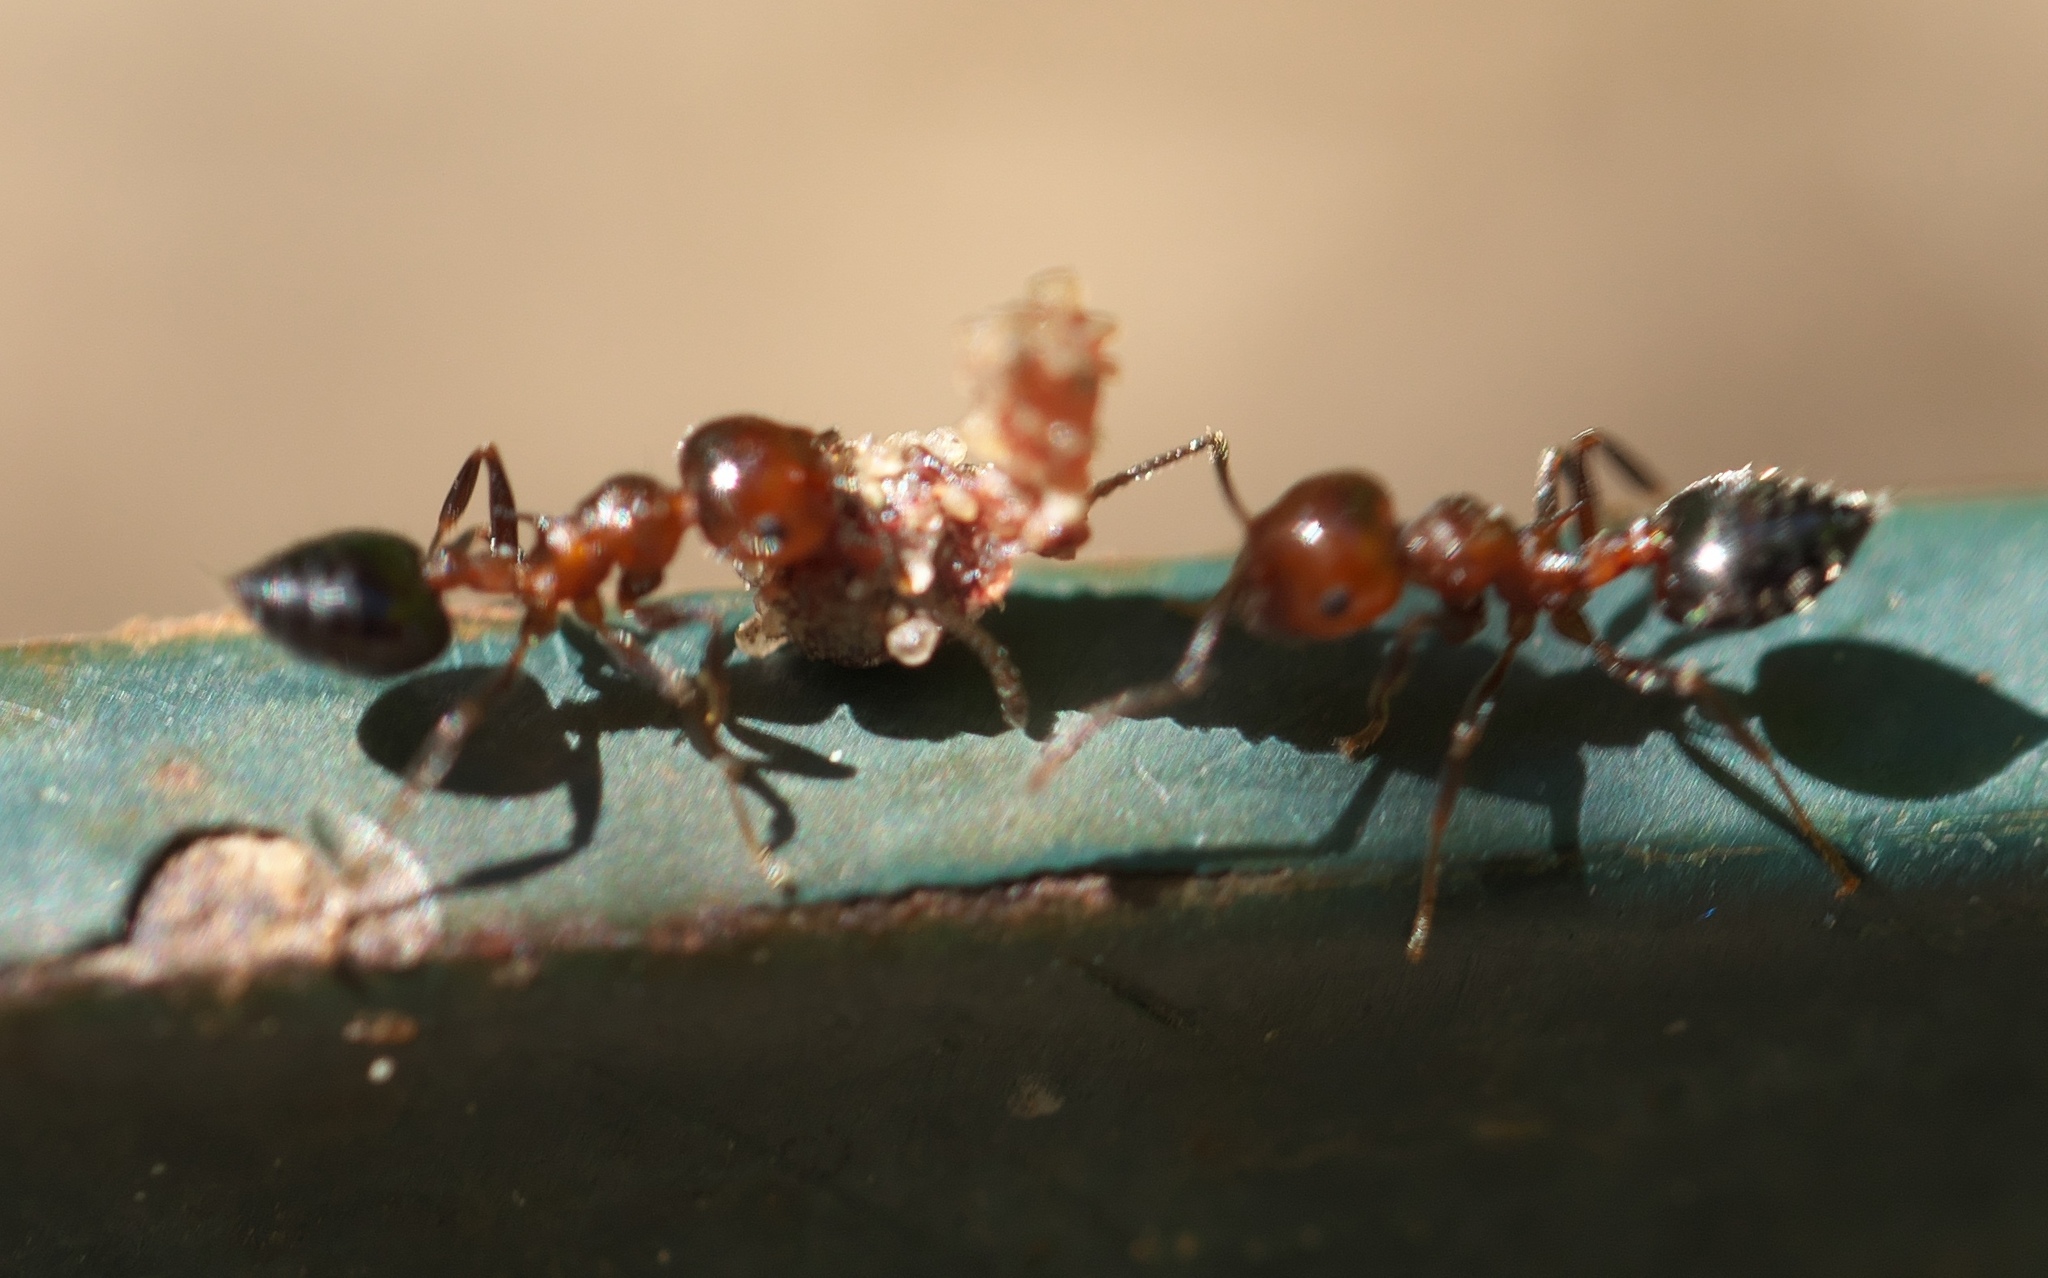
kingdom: Animalia
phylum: Arthropoda
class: Insecta
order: Hymenoptera
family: Formicidae
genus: Crematogaster
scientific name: Crematogaster laeviuscula
